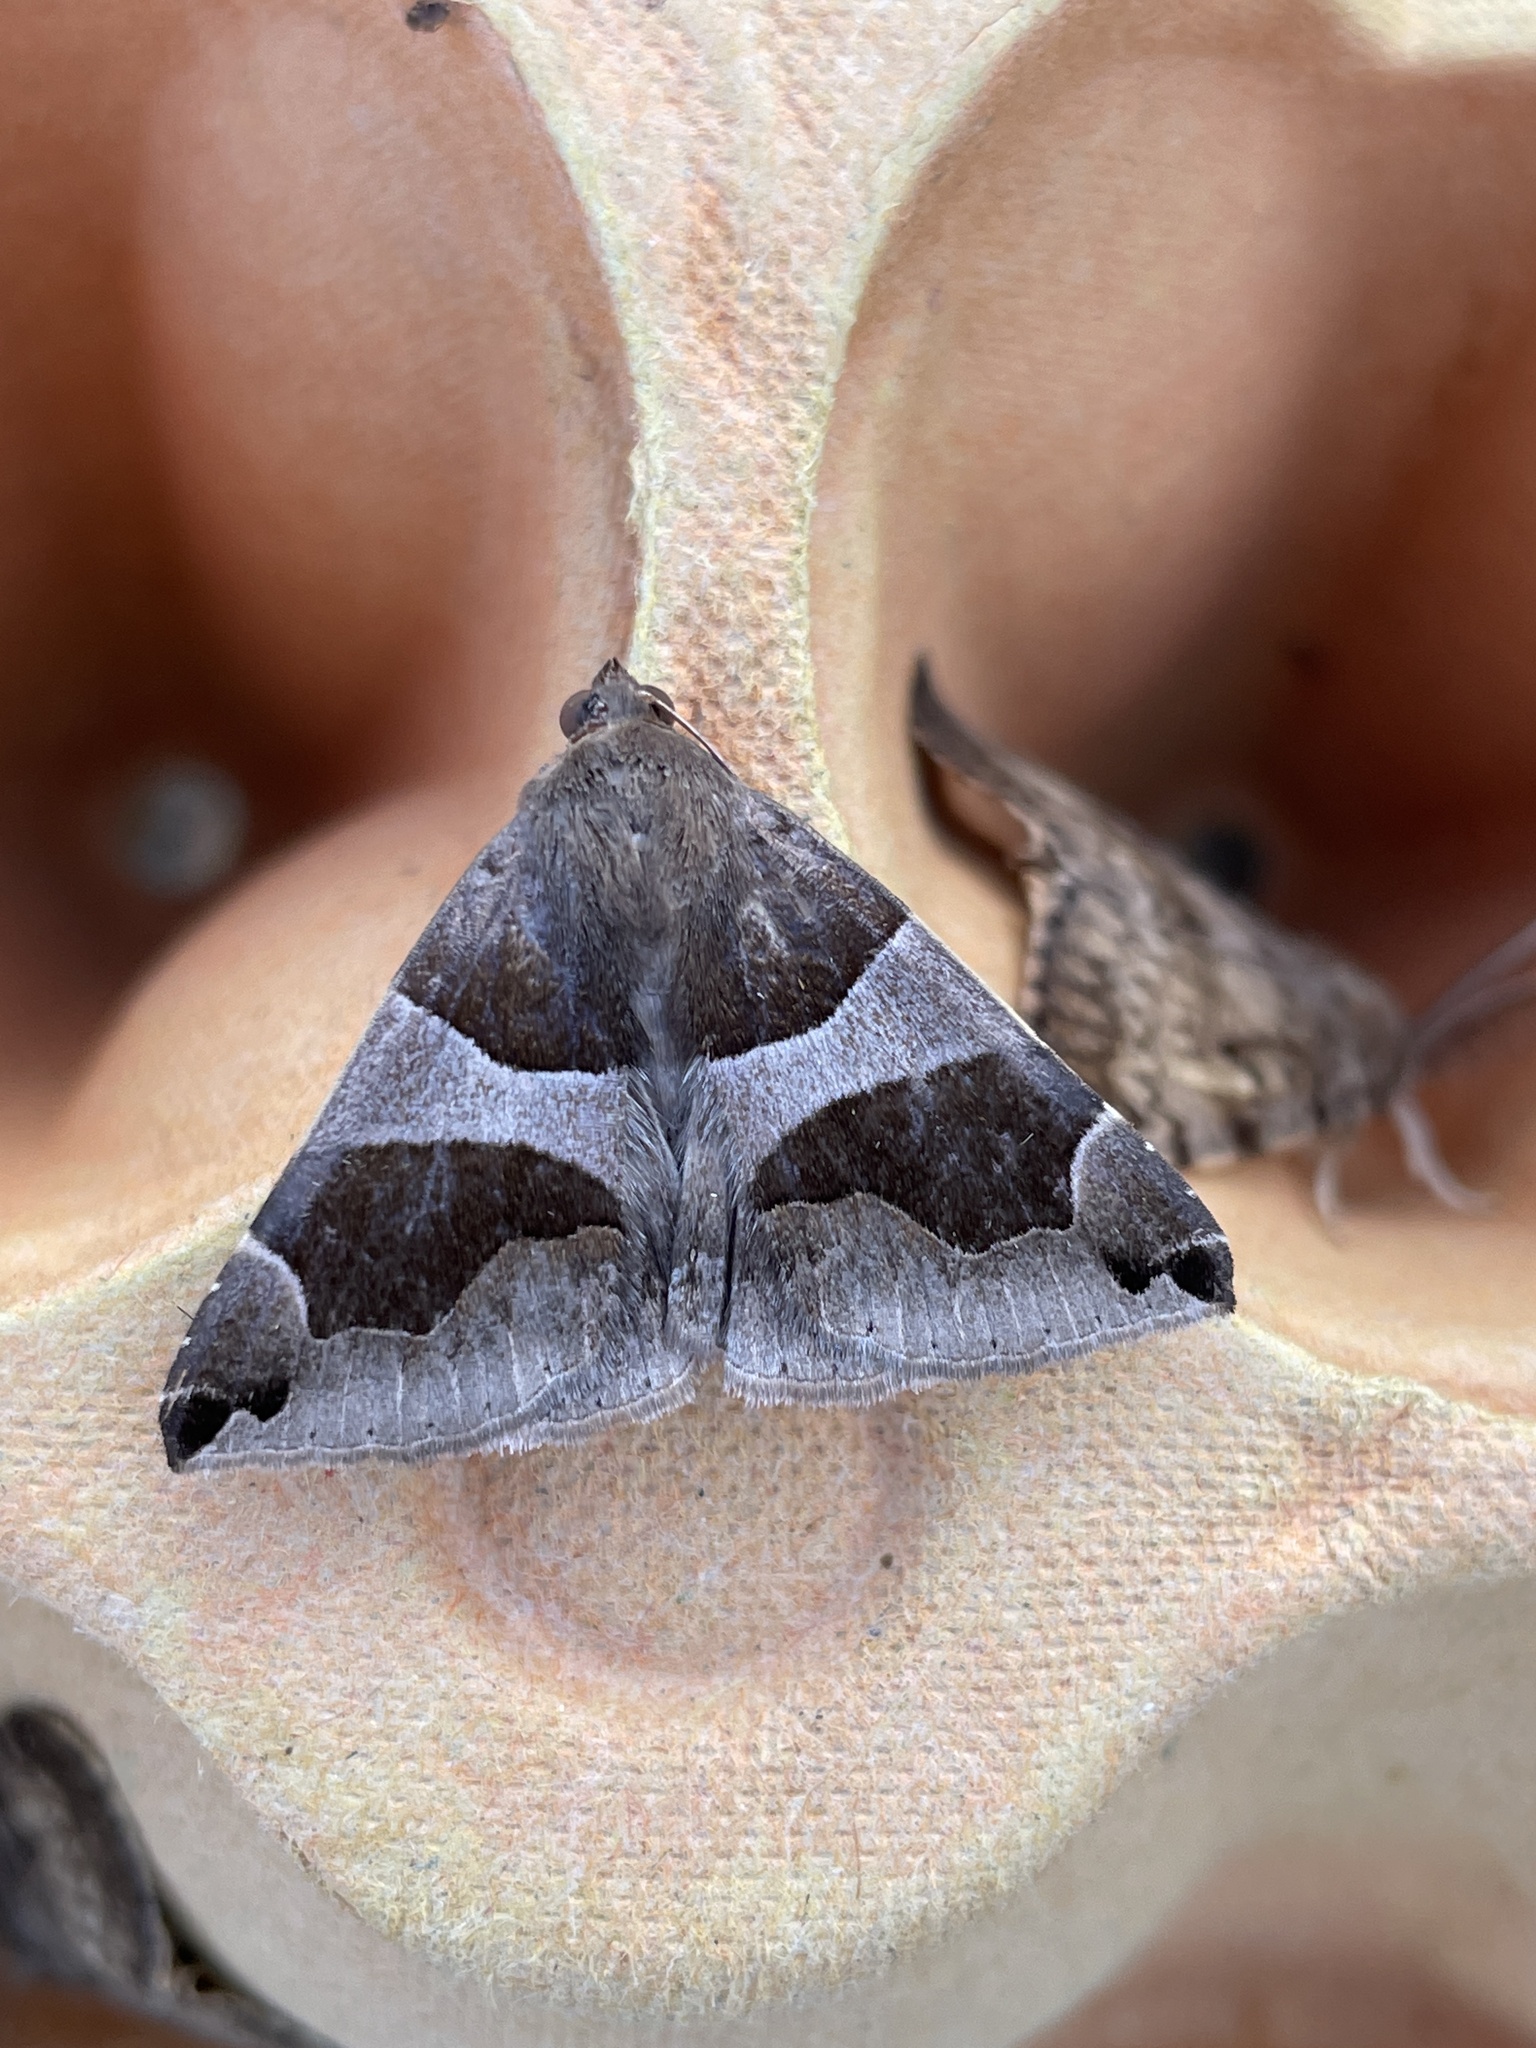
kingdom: Animalia
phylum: Arthropoda
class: Insecta
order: Lepidoptera
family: Erebidae
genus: Dysgonia
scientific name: Dysgonia algira
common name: Passenger
